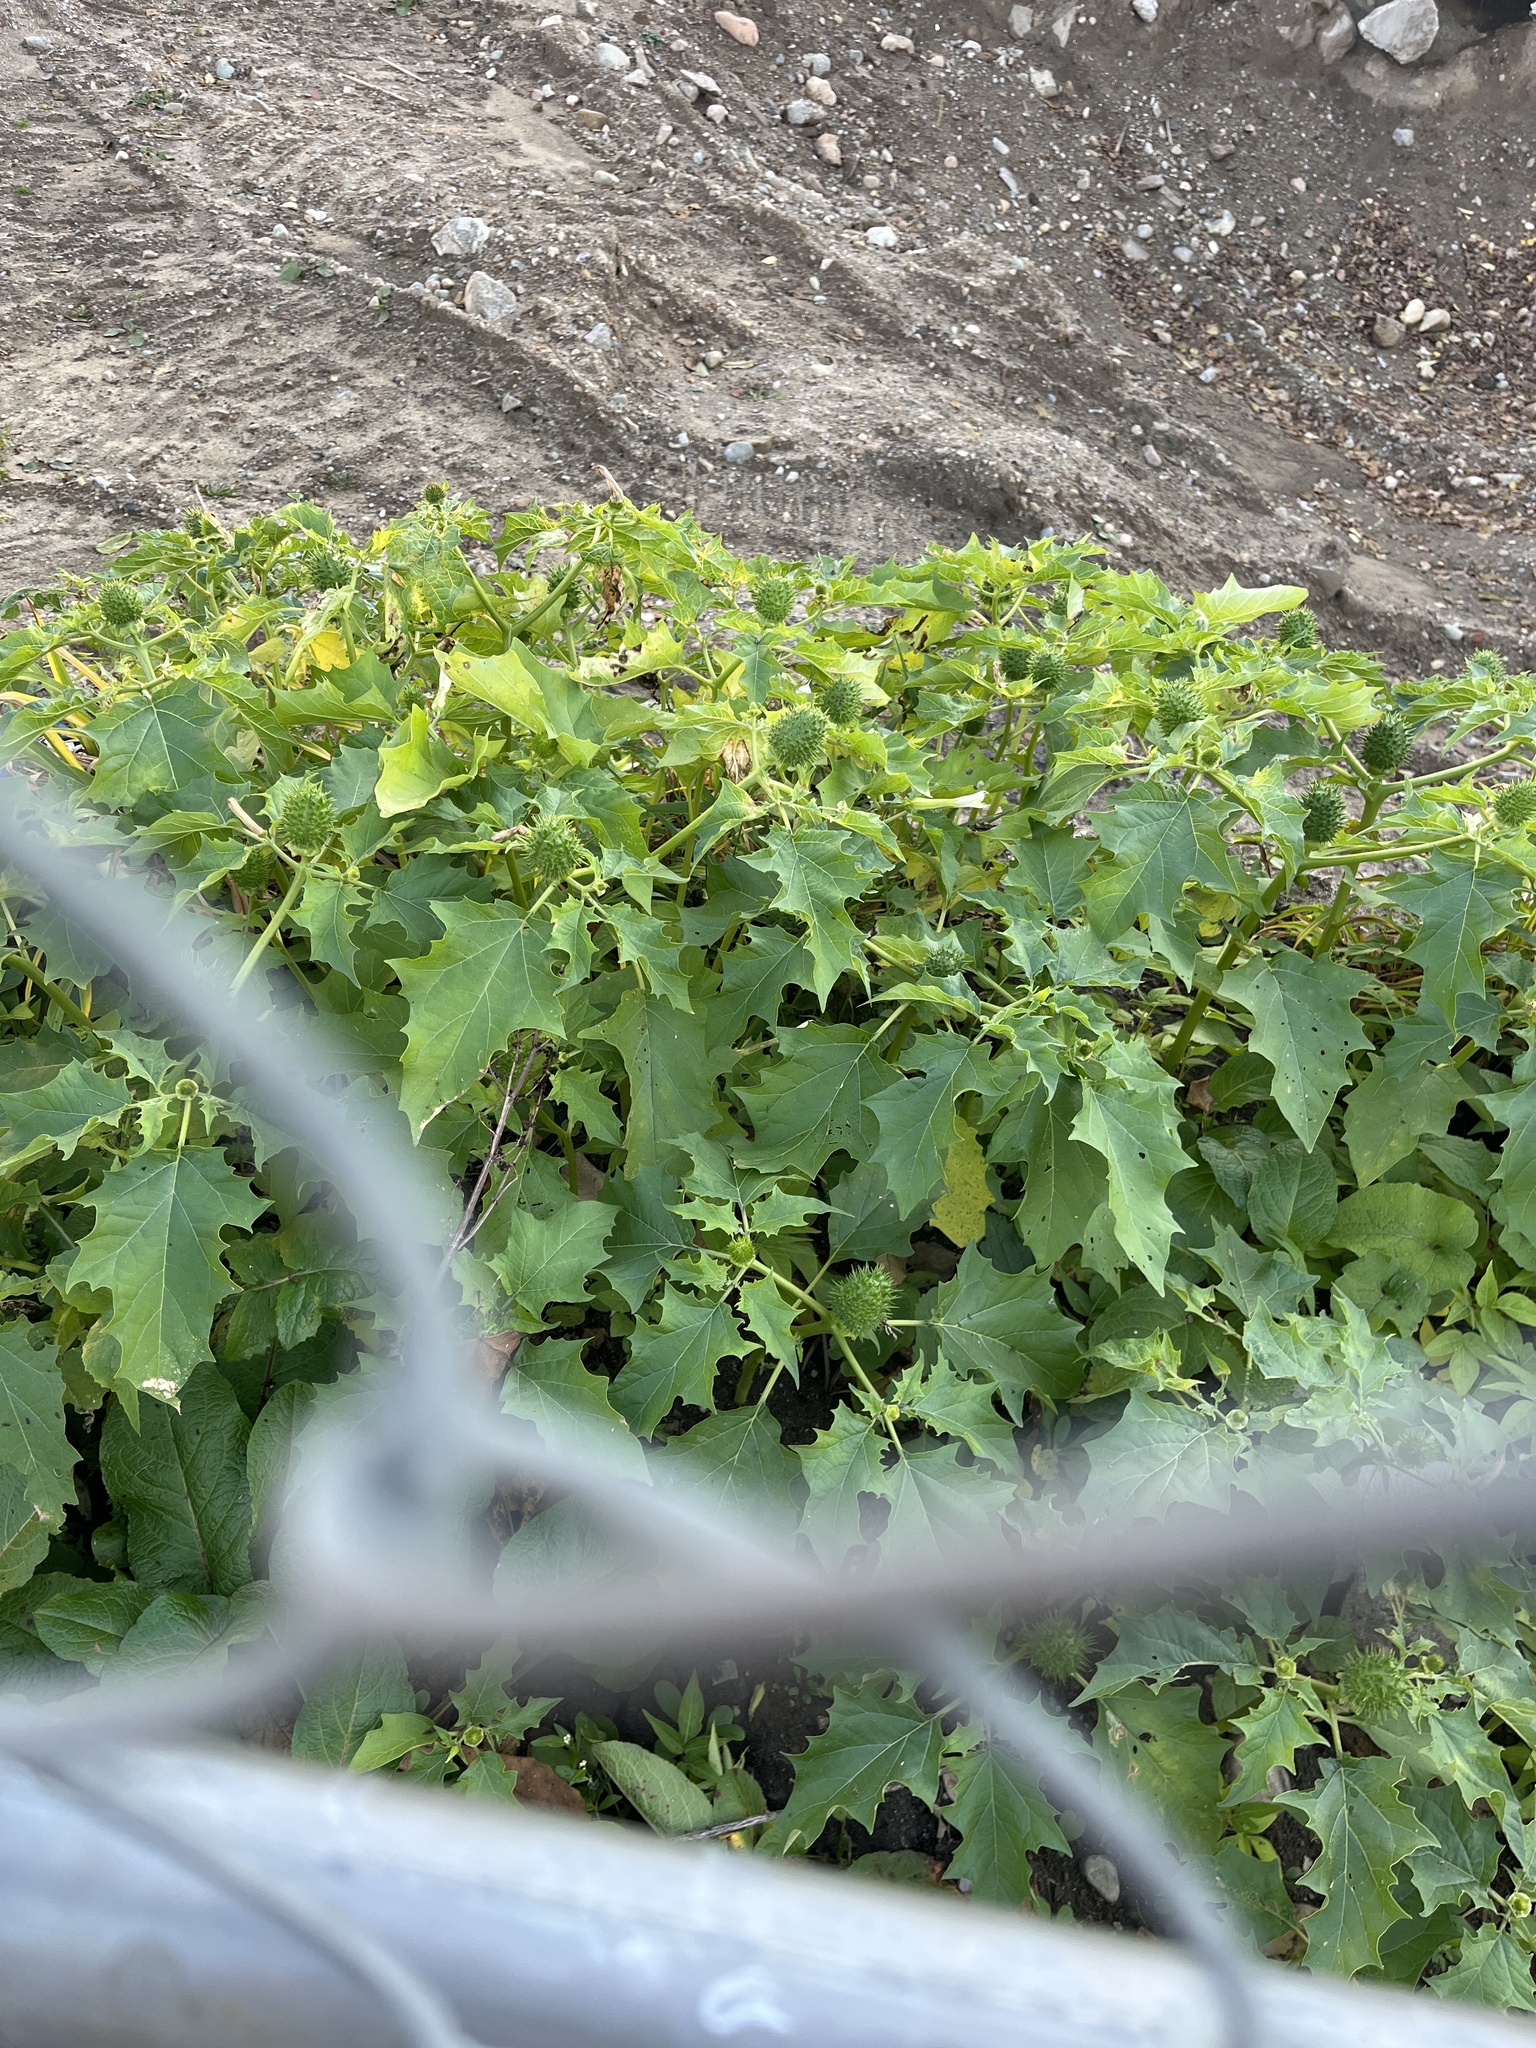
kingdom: Plantae
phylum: Tracheophyta
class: Magnoliopsida
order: Solanales
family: Solanaceae
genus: Datura
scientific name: Datura stramonium
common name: Thorn-apple
